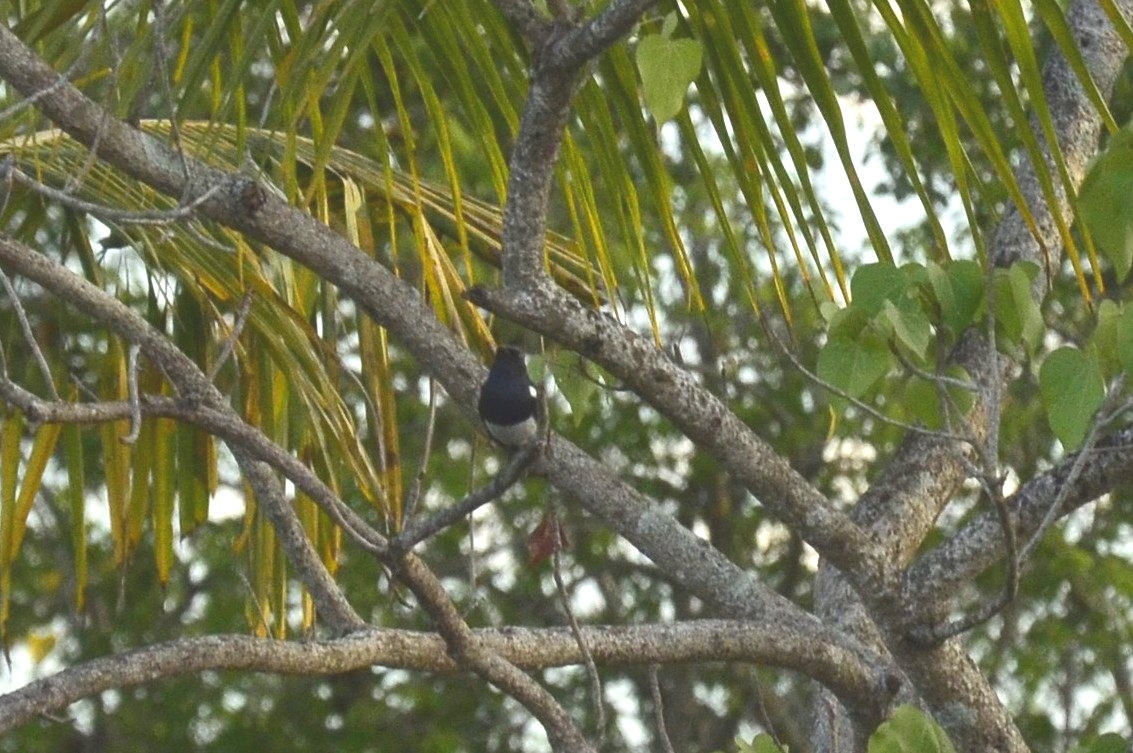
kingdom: Animalia
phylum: Chordata
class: Aves
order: Passeriformes
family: Muscicapidae
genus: Copsychus
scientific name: Copsychus saularis
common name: Oriental magpie-robin
